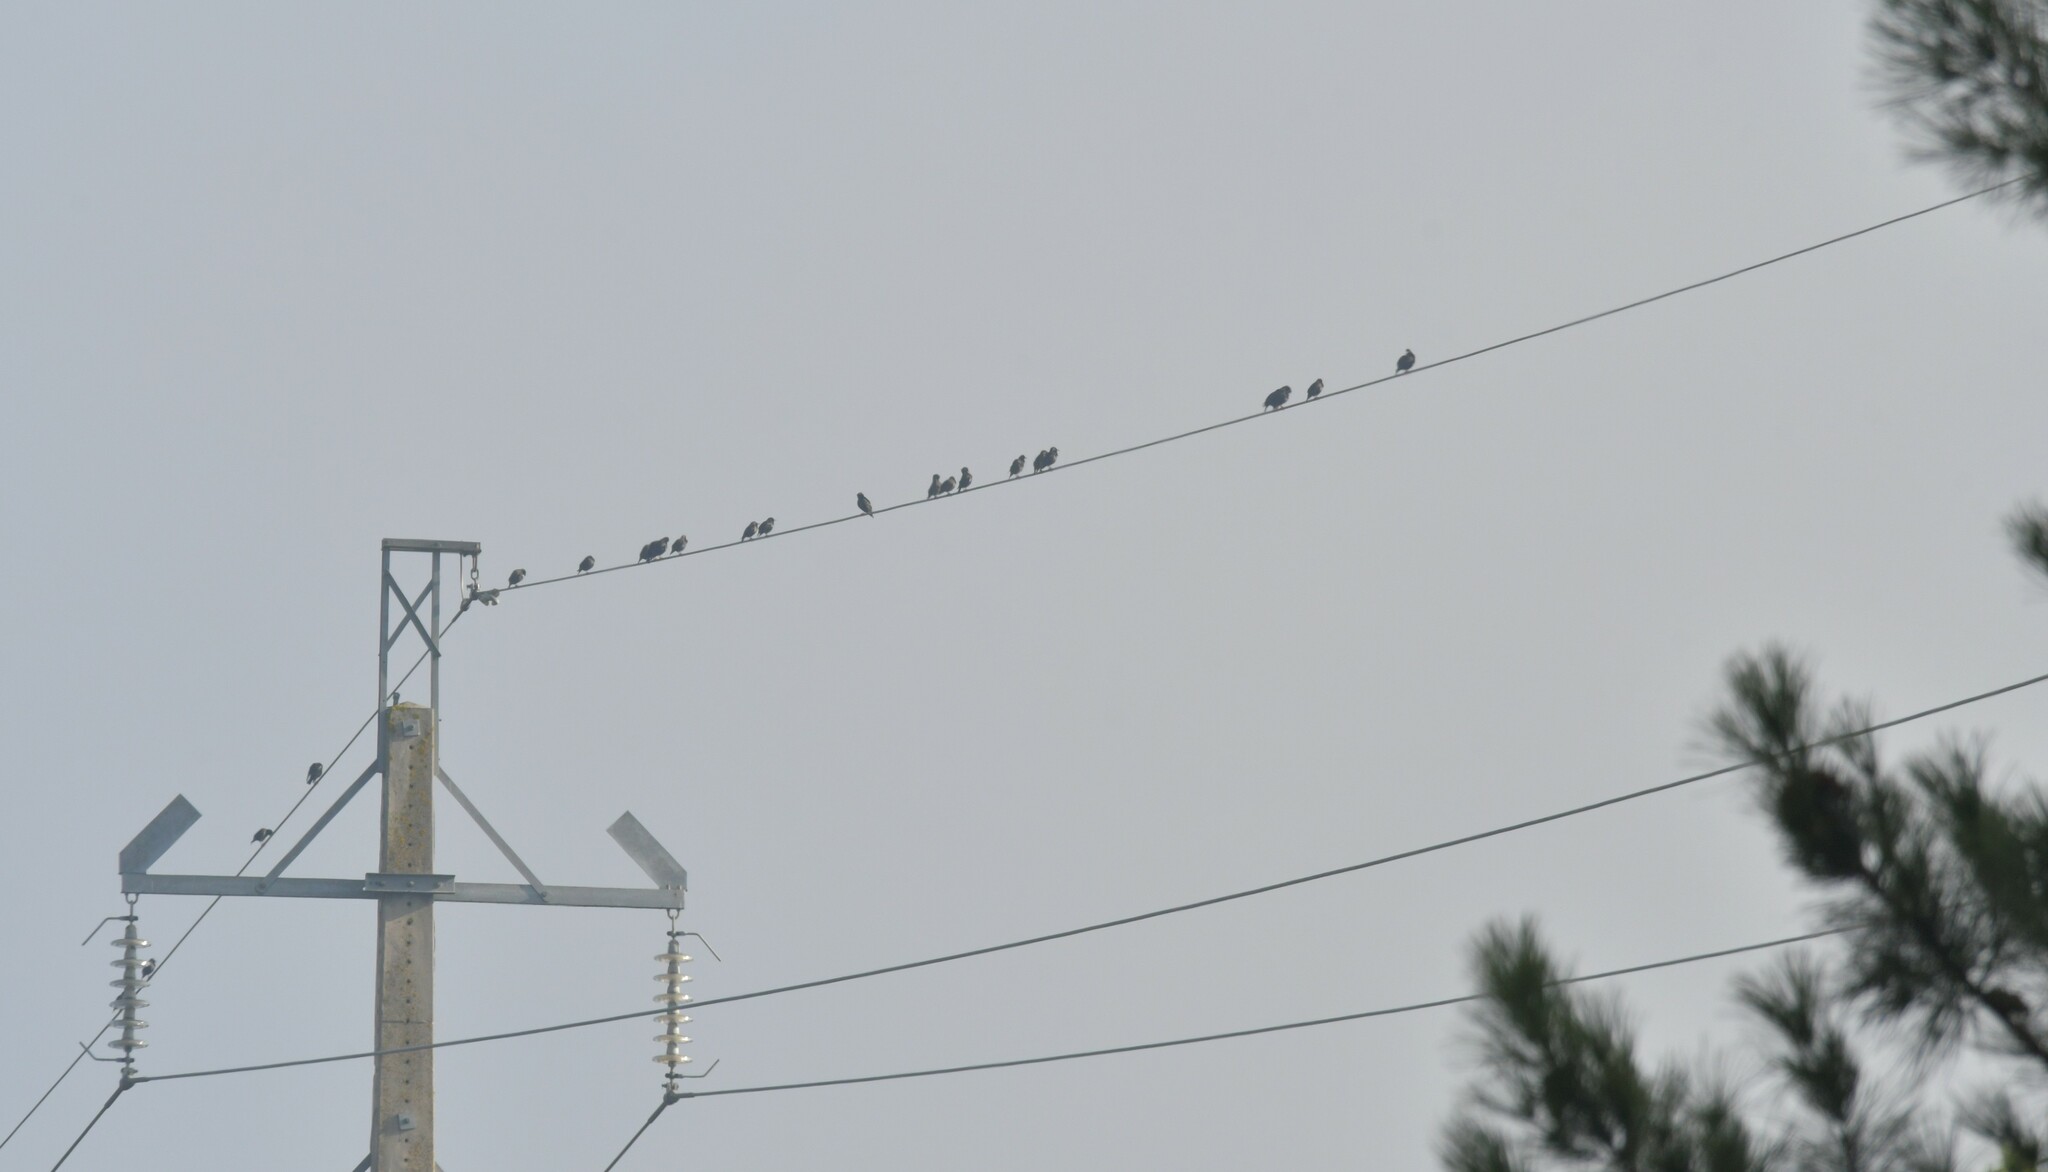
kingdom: Animalia
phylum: Chordata
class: Aves
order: Passeriformes
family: Sturnidae
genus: Sturnus
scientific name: Sturnus unicolor
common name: Spotless starling
